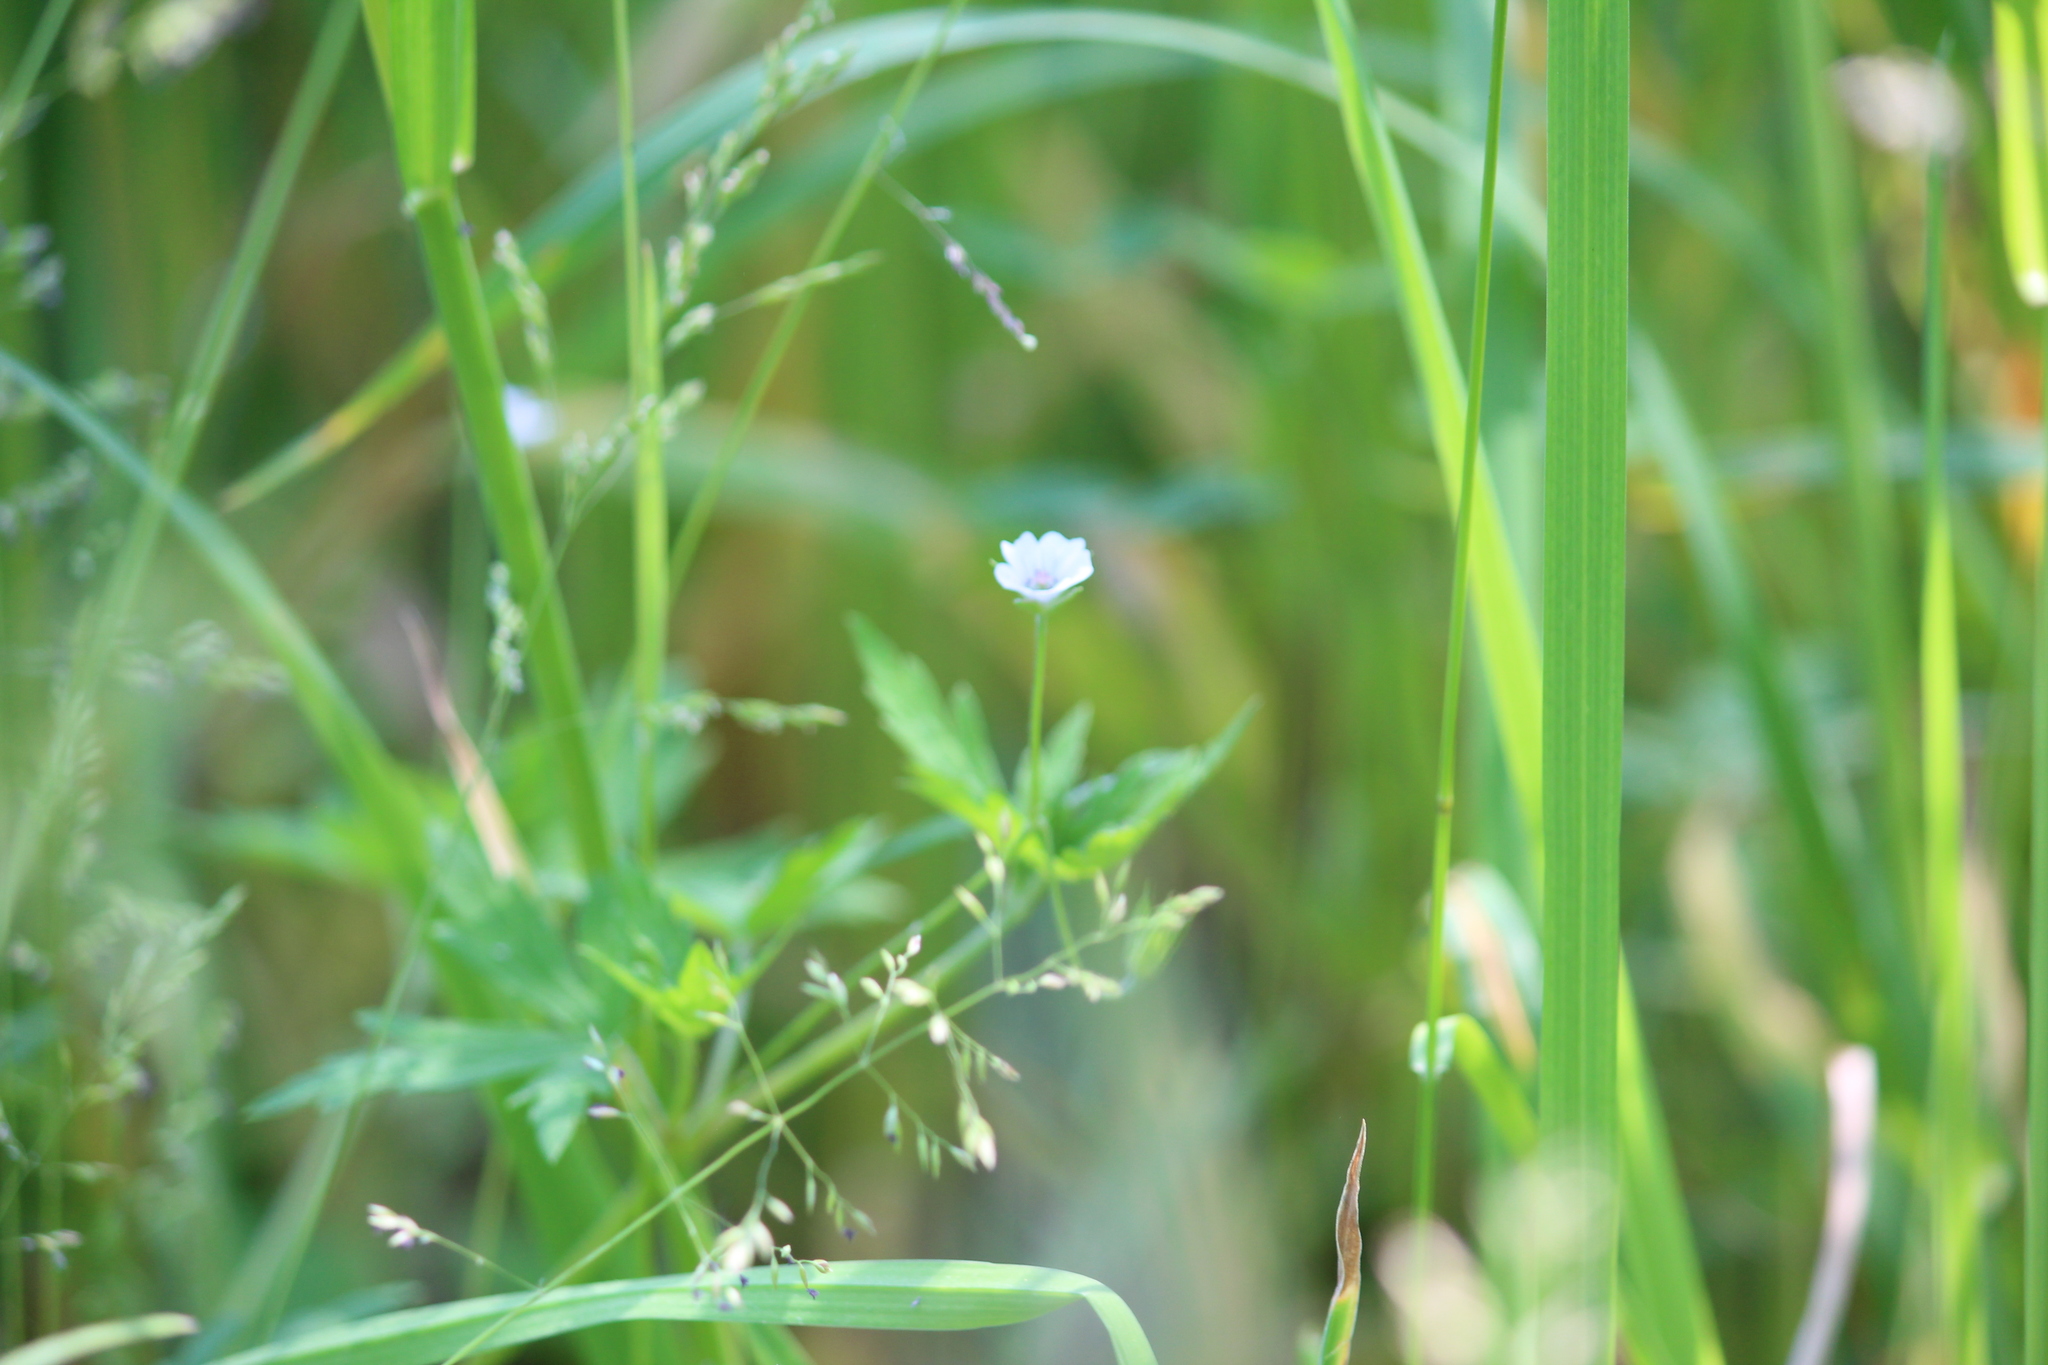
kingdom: Plantae
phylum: Tracheophyta
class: Magnoliopsida
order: Geraniales
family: Geraniaceae
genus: Geranium
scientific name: Geranium sibiricum
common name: Siberian crane's-bill
